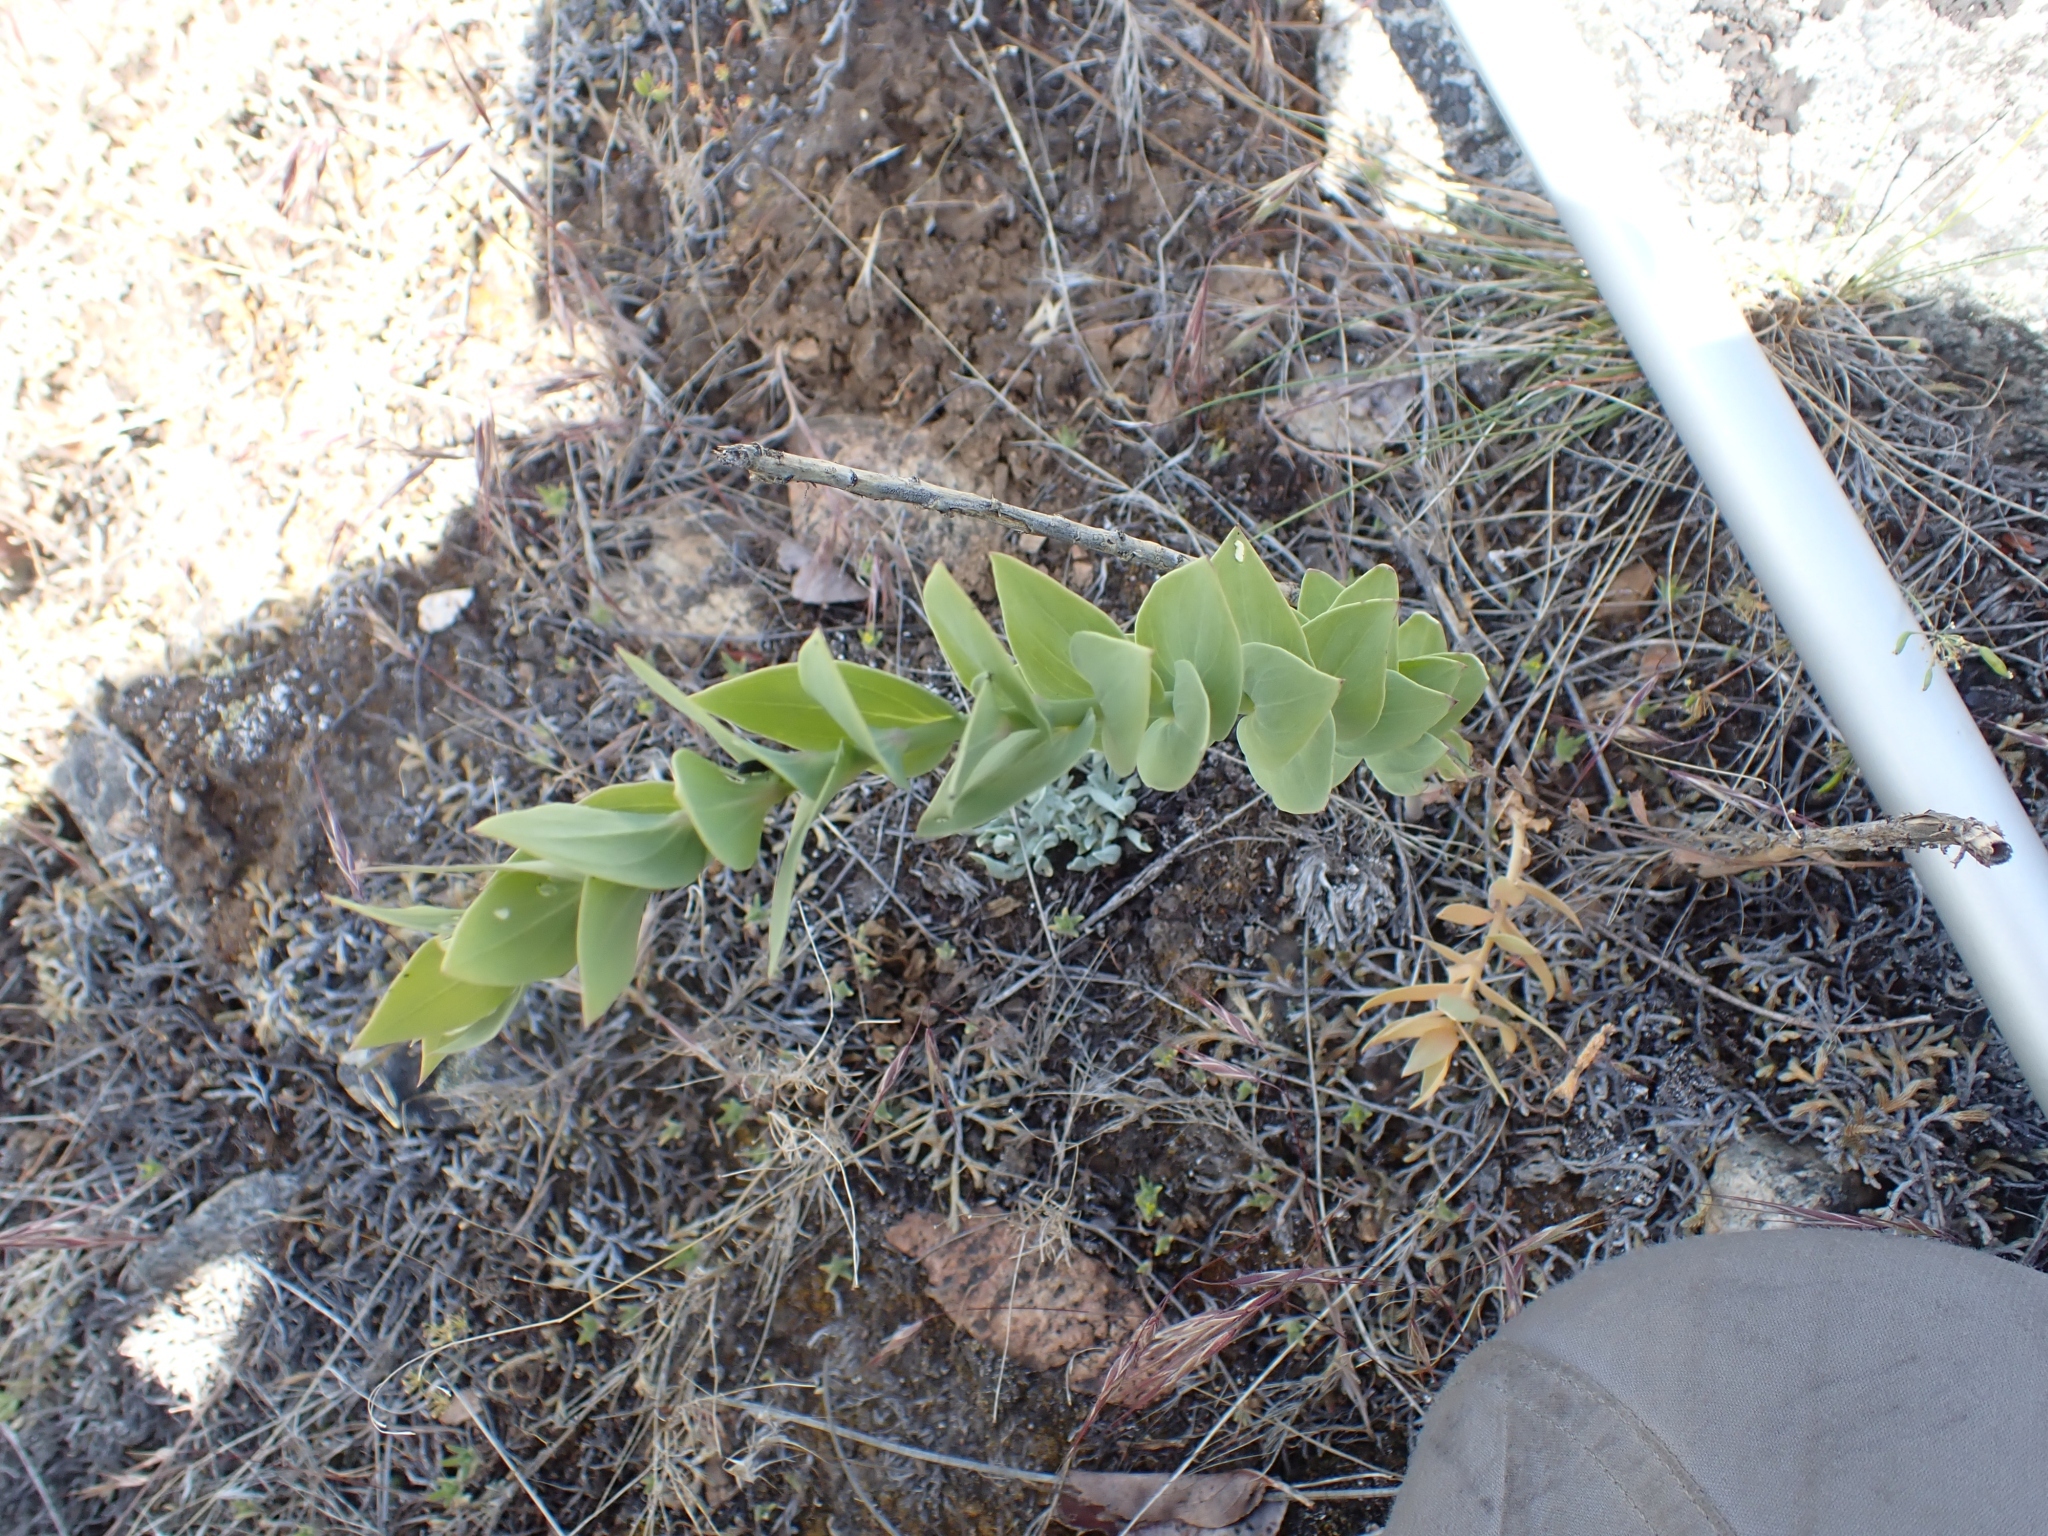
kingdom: Plantae
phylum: Tracheophyta
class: Magnoliopsida
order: Lamiales
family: Plantaginaceae
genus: Linaria
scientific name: Linaria dalmatica
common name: Dalmatian toadflax
